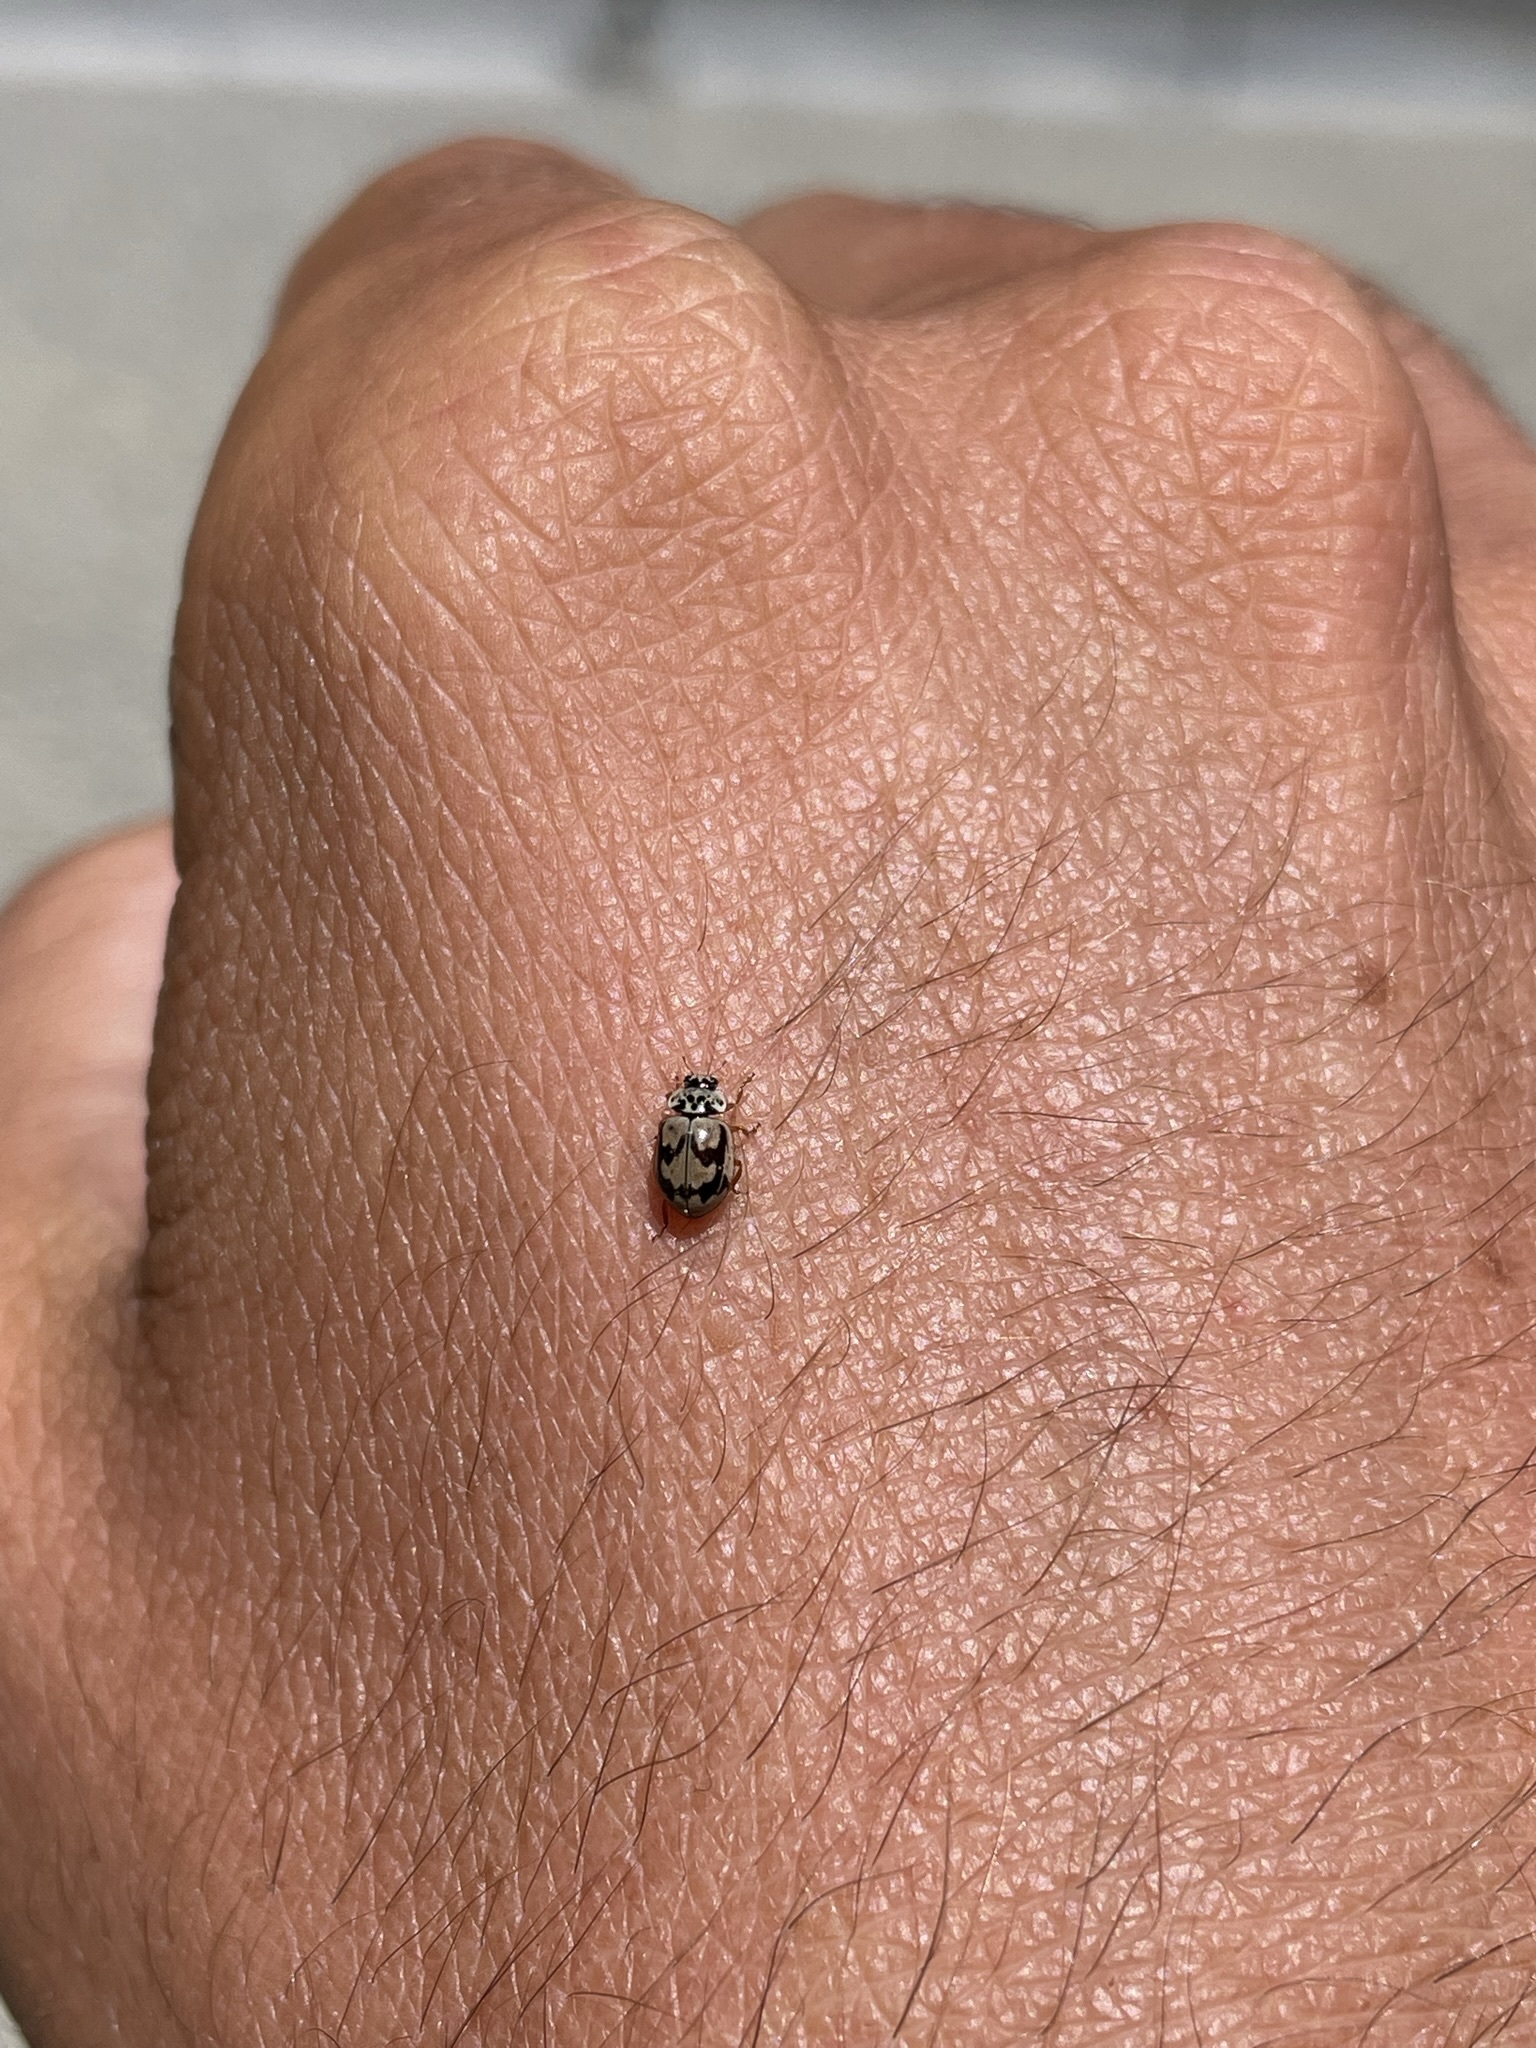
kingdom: Animalia
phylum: Arthropoda
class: Insecta
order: Coleoptera
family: Coccinellidae
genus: Mulsantina
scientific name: Mulsantina picta
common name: Painted ladybird
